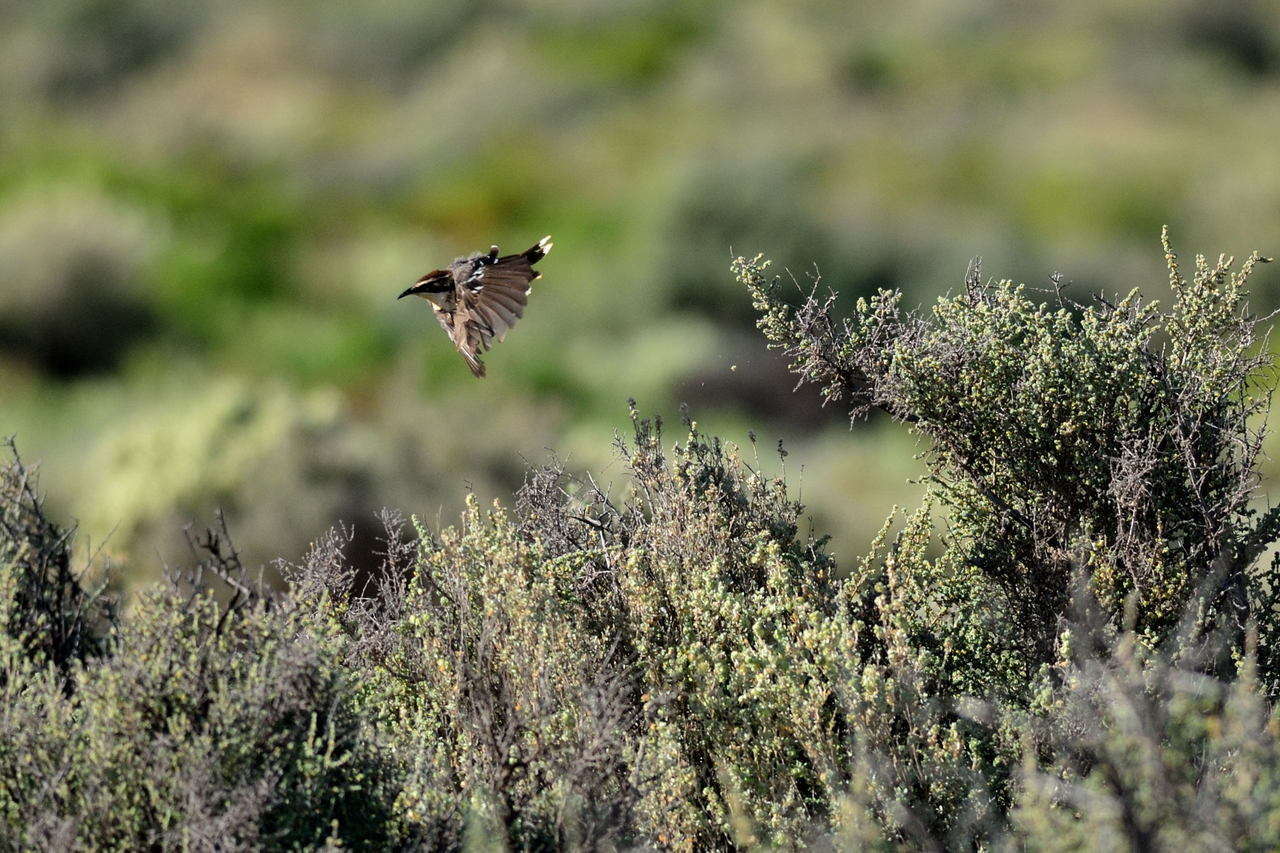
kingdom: Animalia
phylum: Chordata
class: Aves
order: Passeriformes
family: Pomatostomidae
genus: Pomatostomus
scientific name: Pomatostomus ruficeps
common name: Chestnut-crowned babbler
